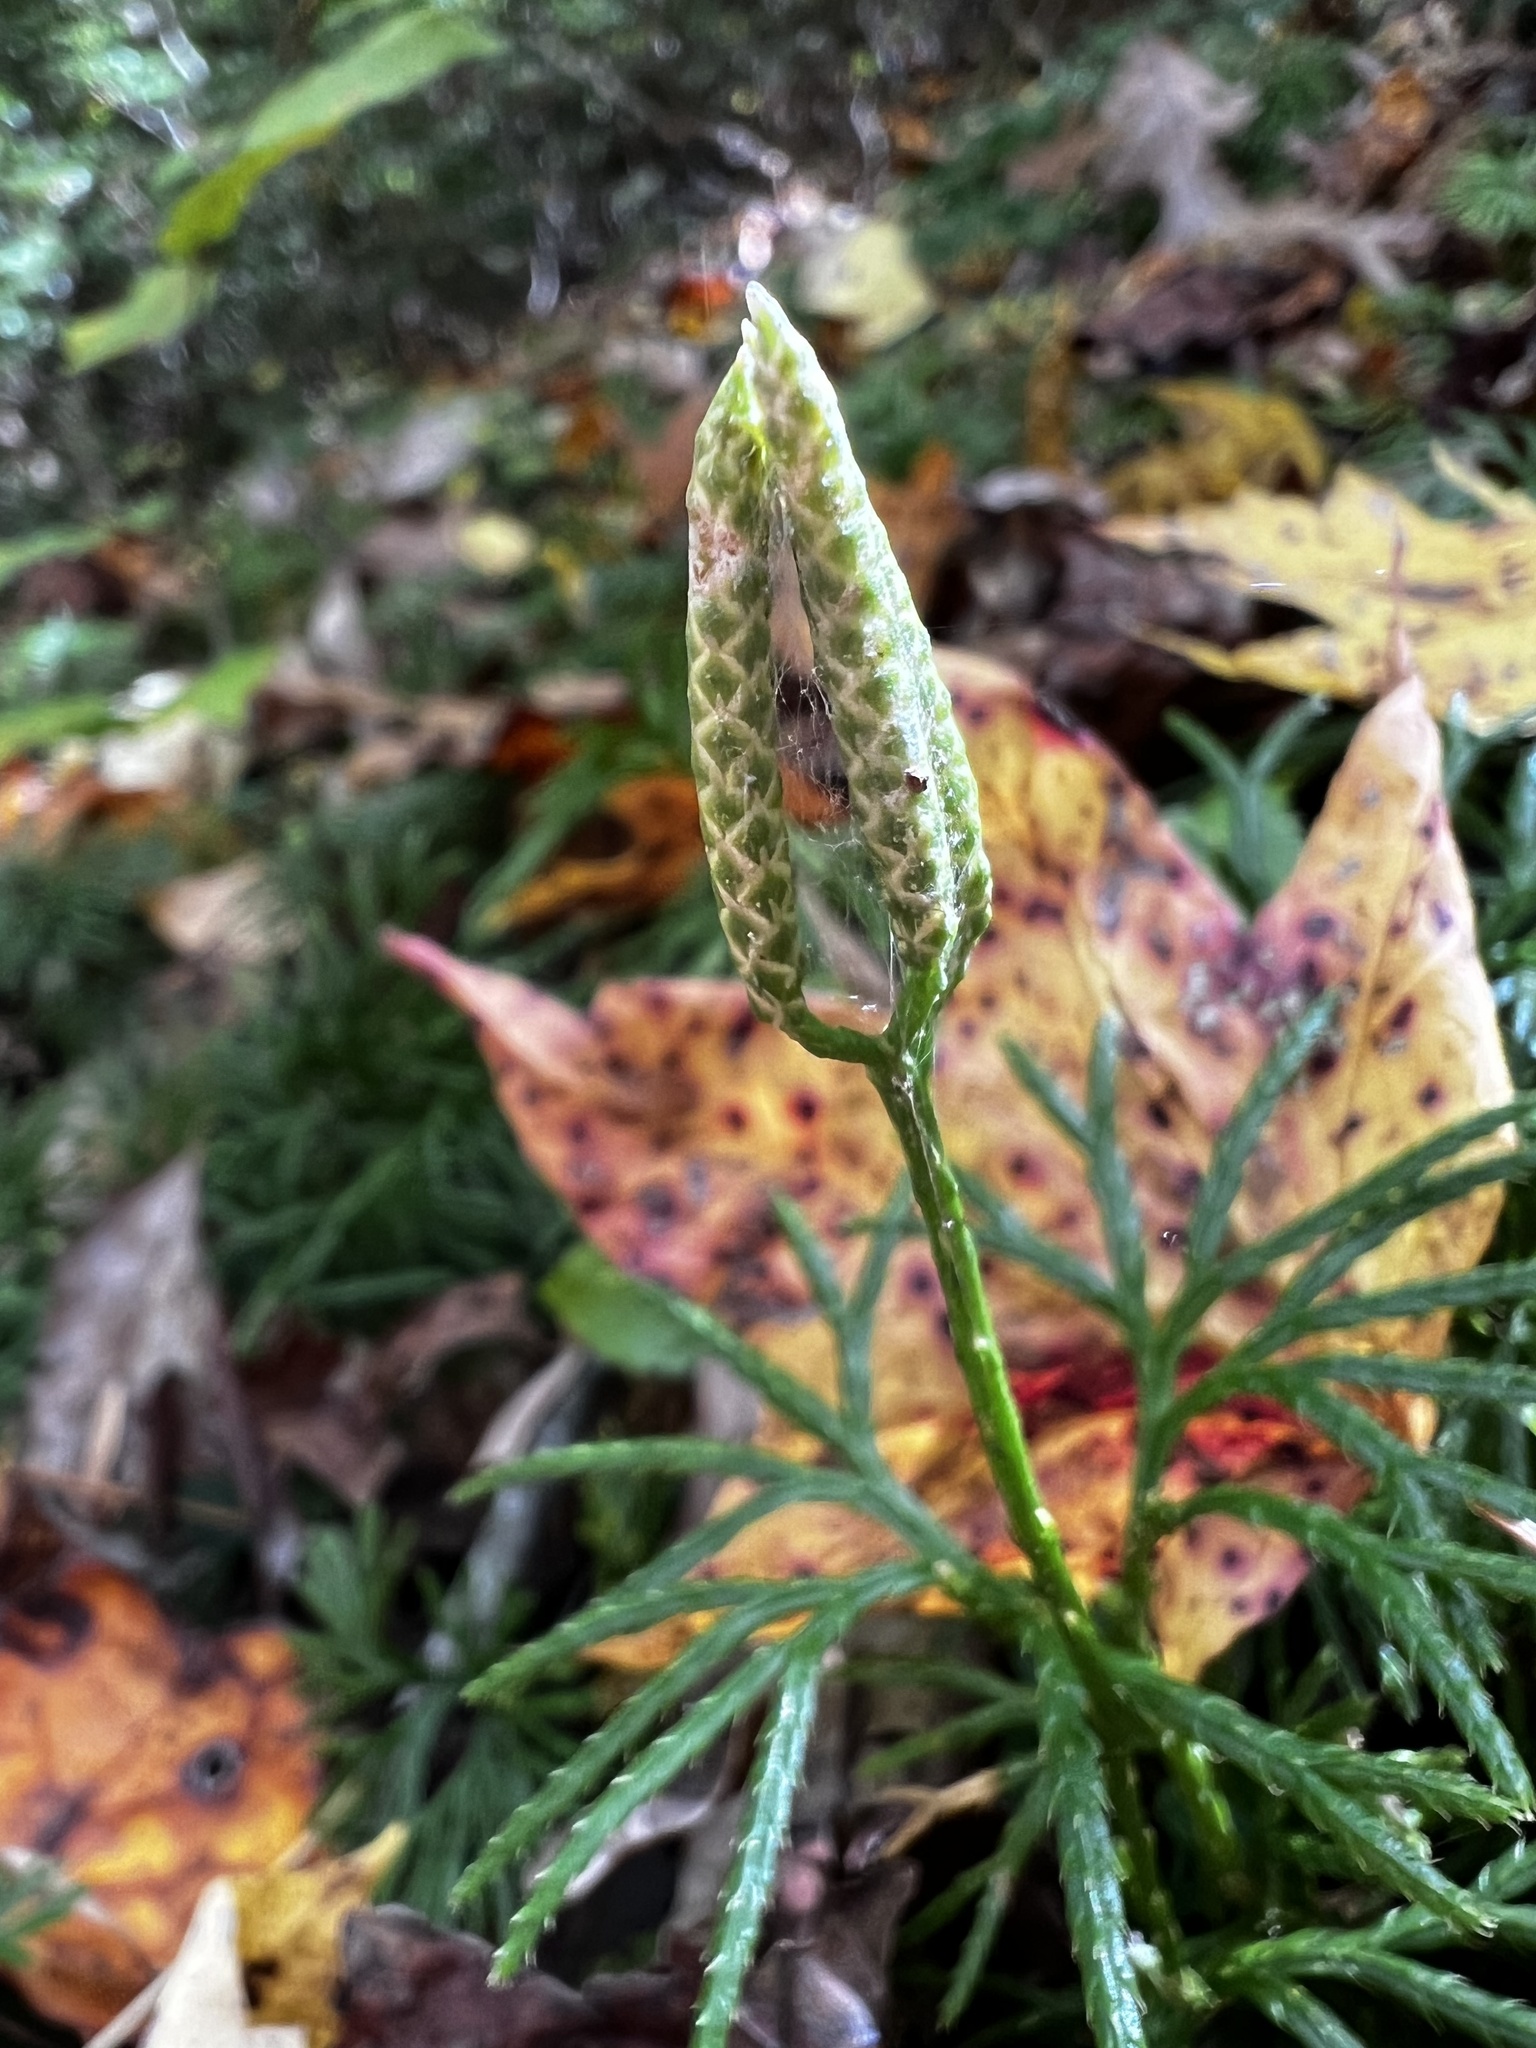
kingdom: Plantae
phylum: Tracheophyta
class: Lycopodiopsida
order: Lycopodiales
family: Lycopodiaceae
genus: Diphasiastrum
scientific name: Diphasiastrum digitatum
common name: Southern running-pine
